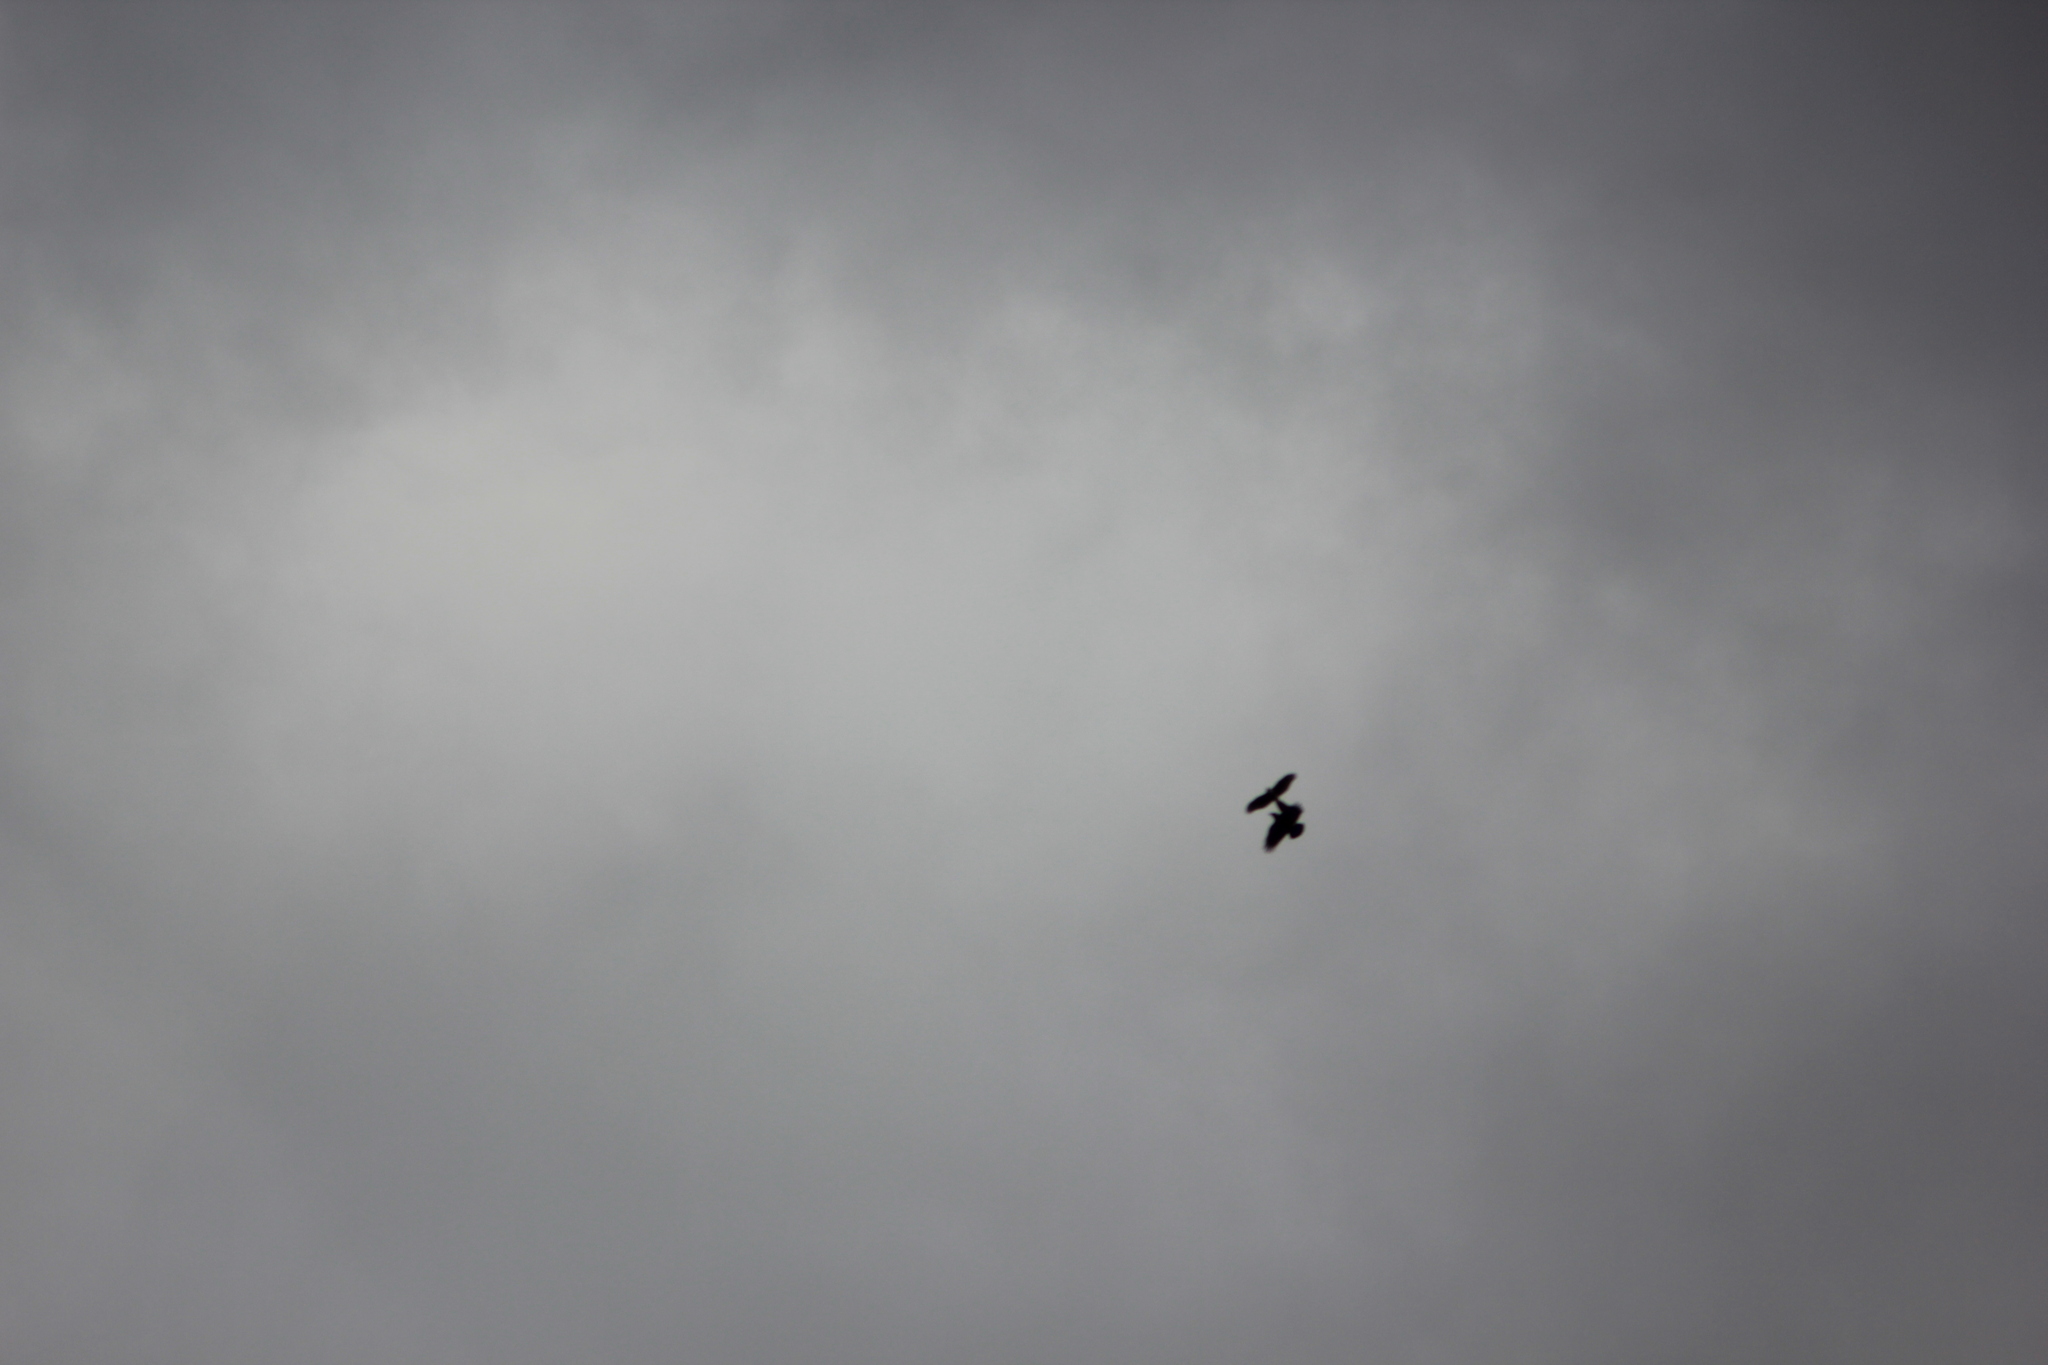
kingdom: Animalia
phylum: Chordata
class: Aves
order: Accipitriformes
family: Accipitridae
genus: Accipiter
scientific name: Accipiter nisus
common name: Eurasian sparrowhawk
